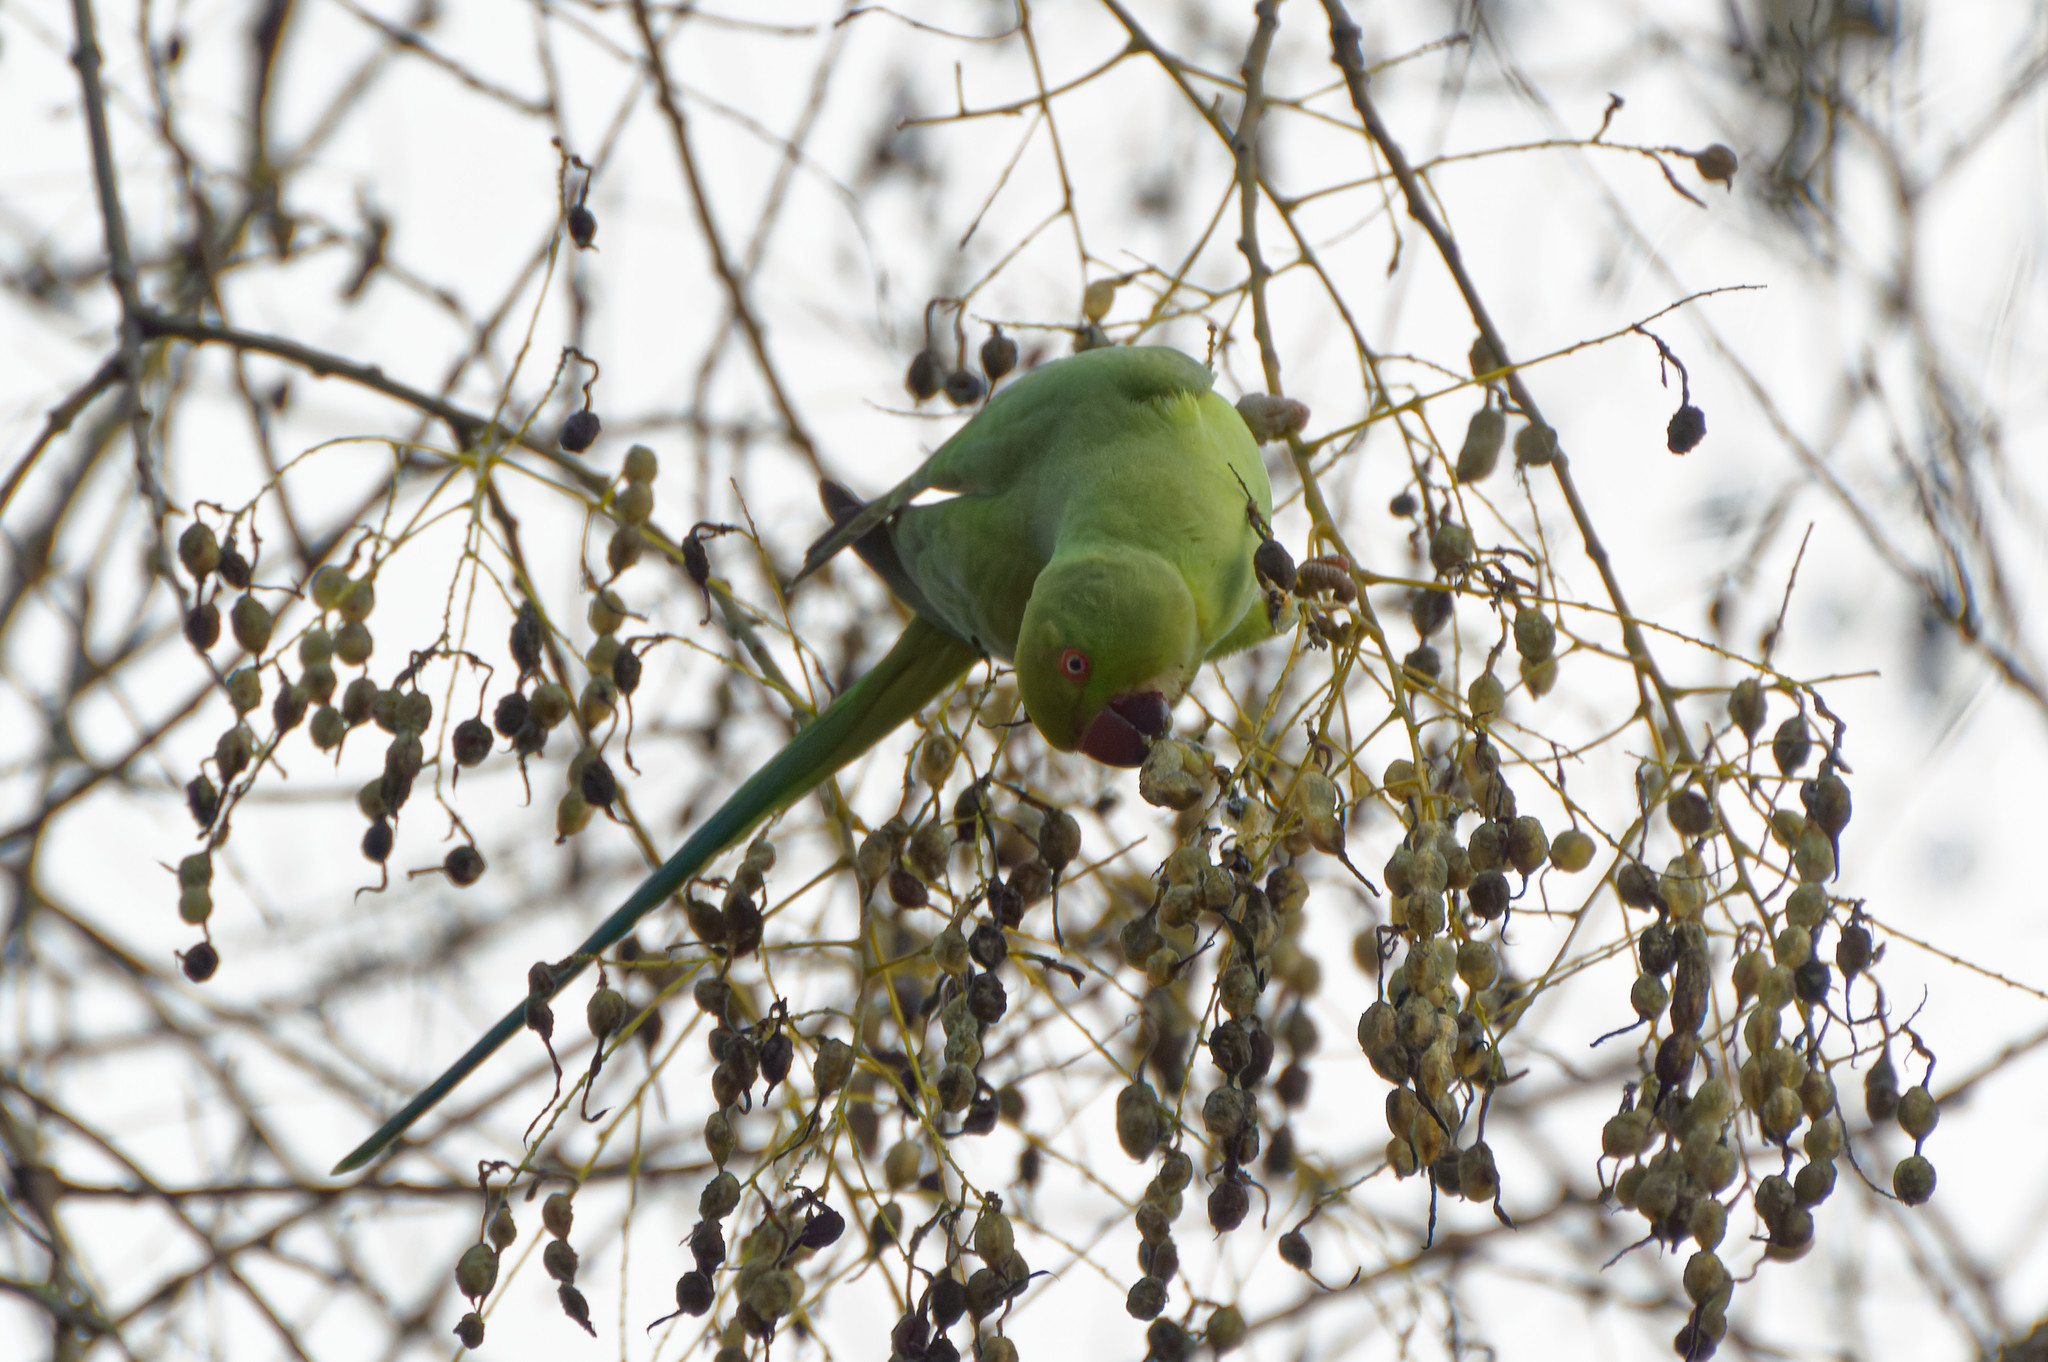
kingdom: Animalia
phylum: Chordata
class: Aves
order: Psittaciformes
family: Psittacidae
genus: Psittacula
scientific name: Psittacula krameri
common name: Rose-ringed parakeet
